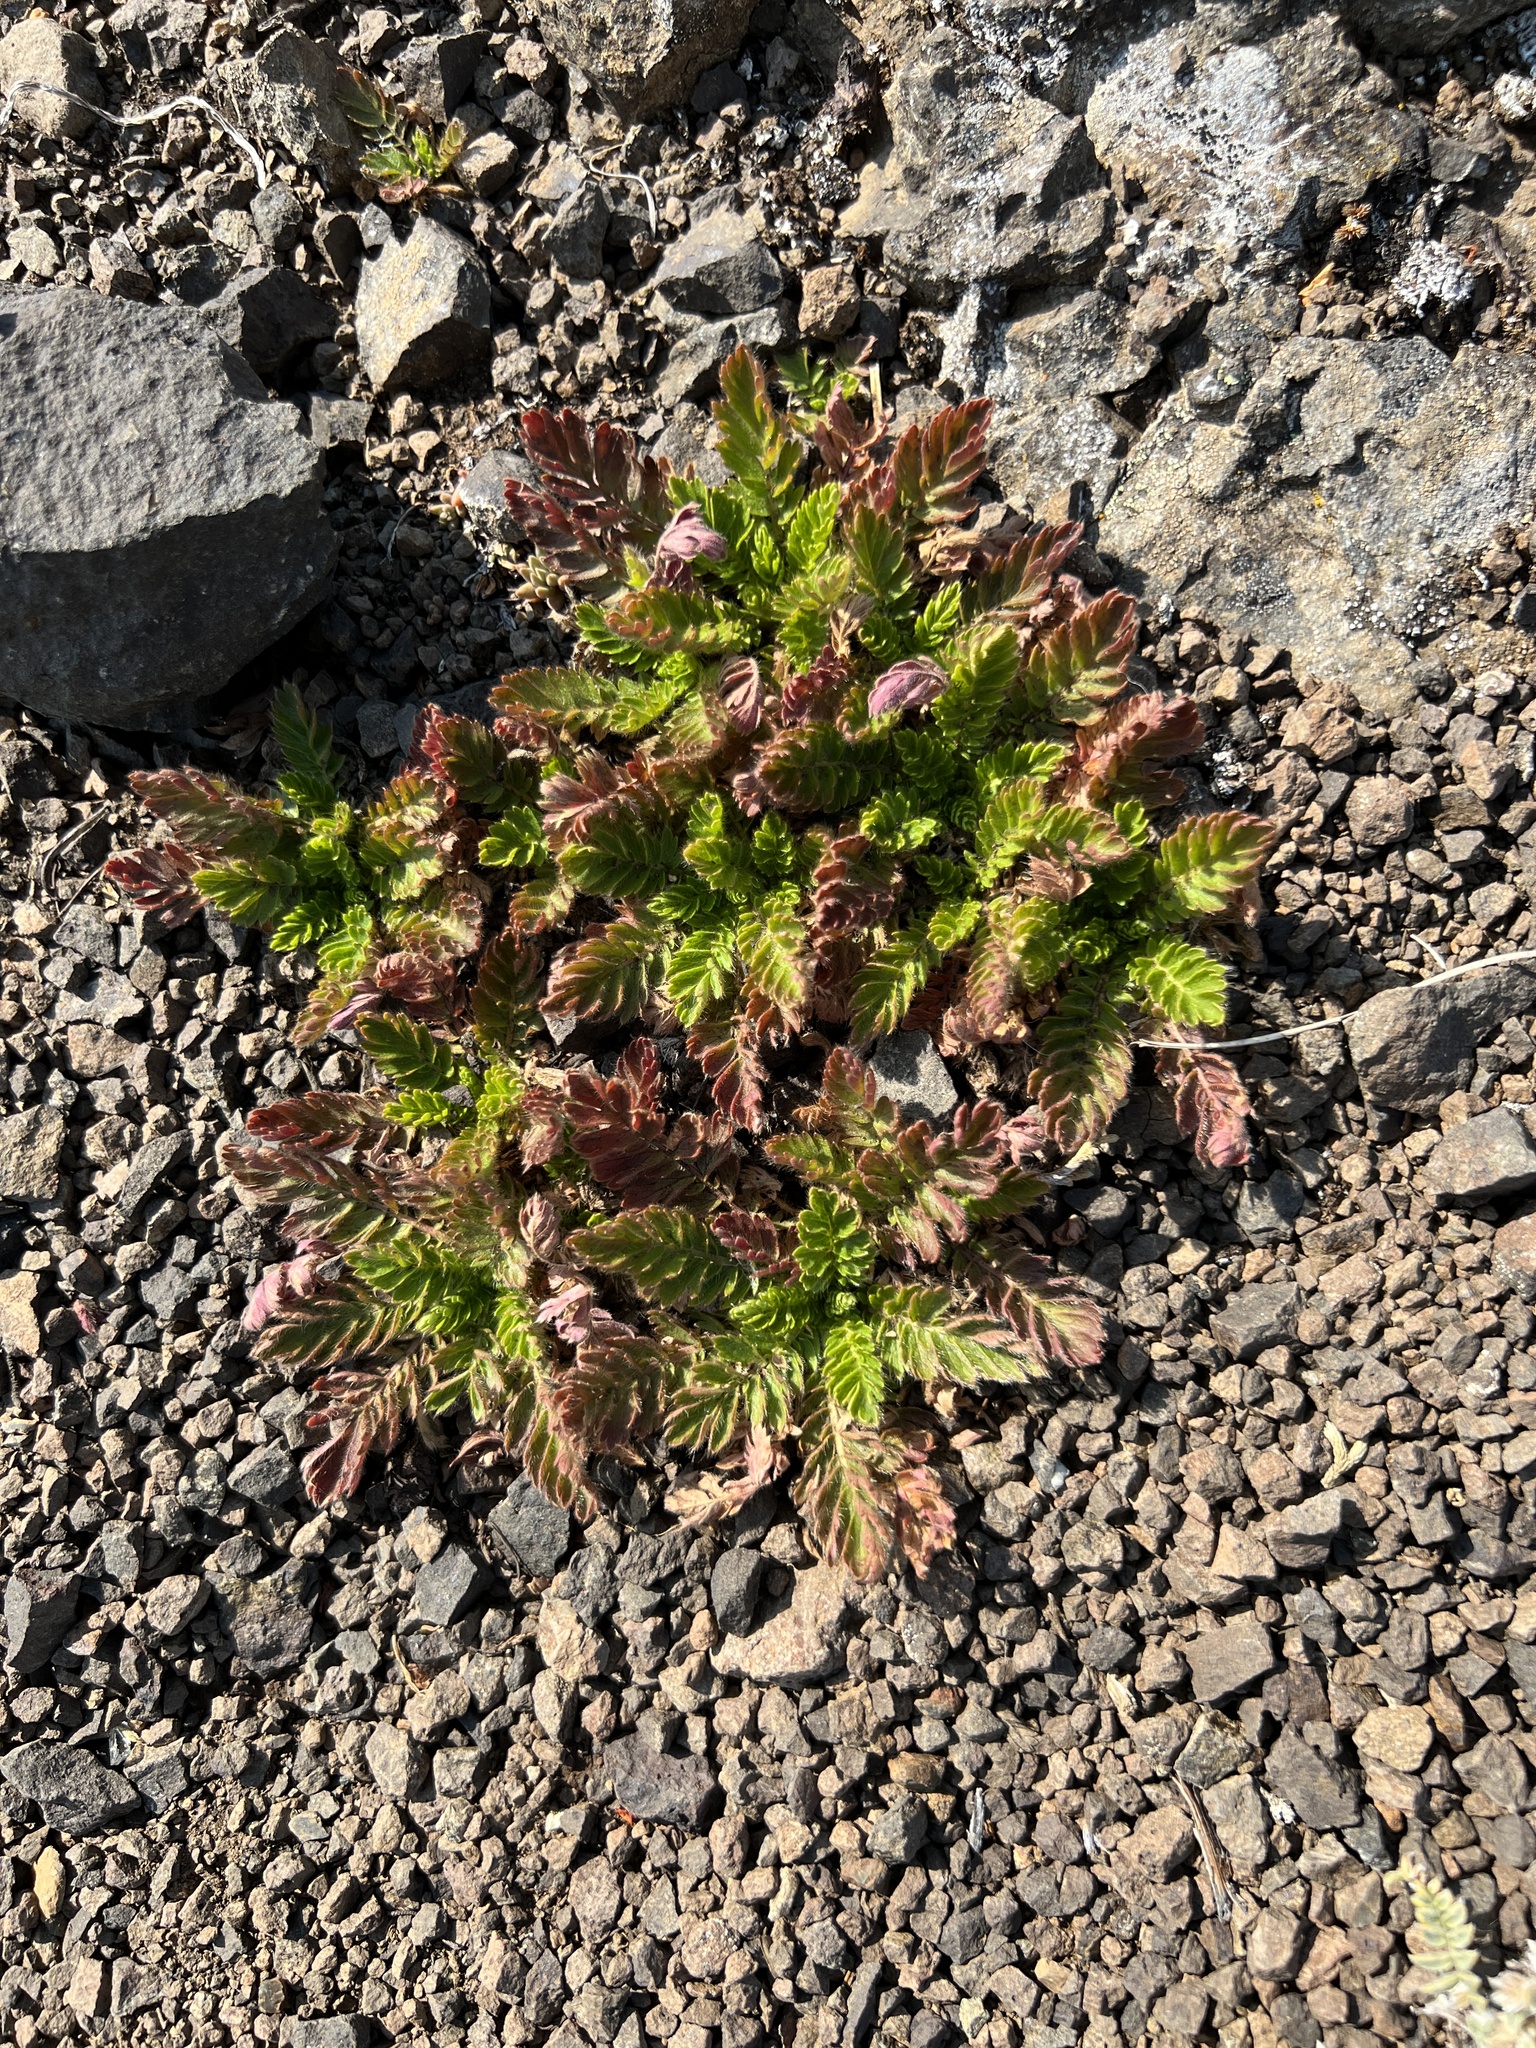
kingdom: Plantae
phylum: Tracheophyta
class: Magnoliopsida
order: Rosales
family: Rosaceae
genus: Geum
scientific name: Geum triflorum
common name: Old man's whiskers
